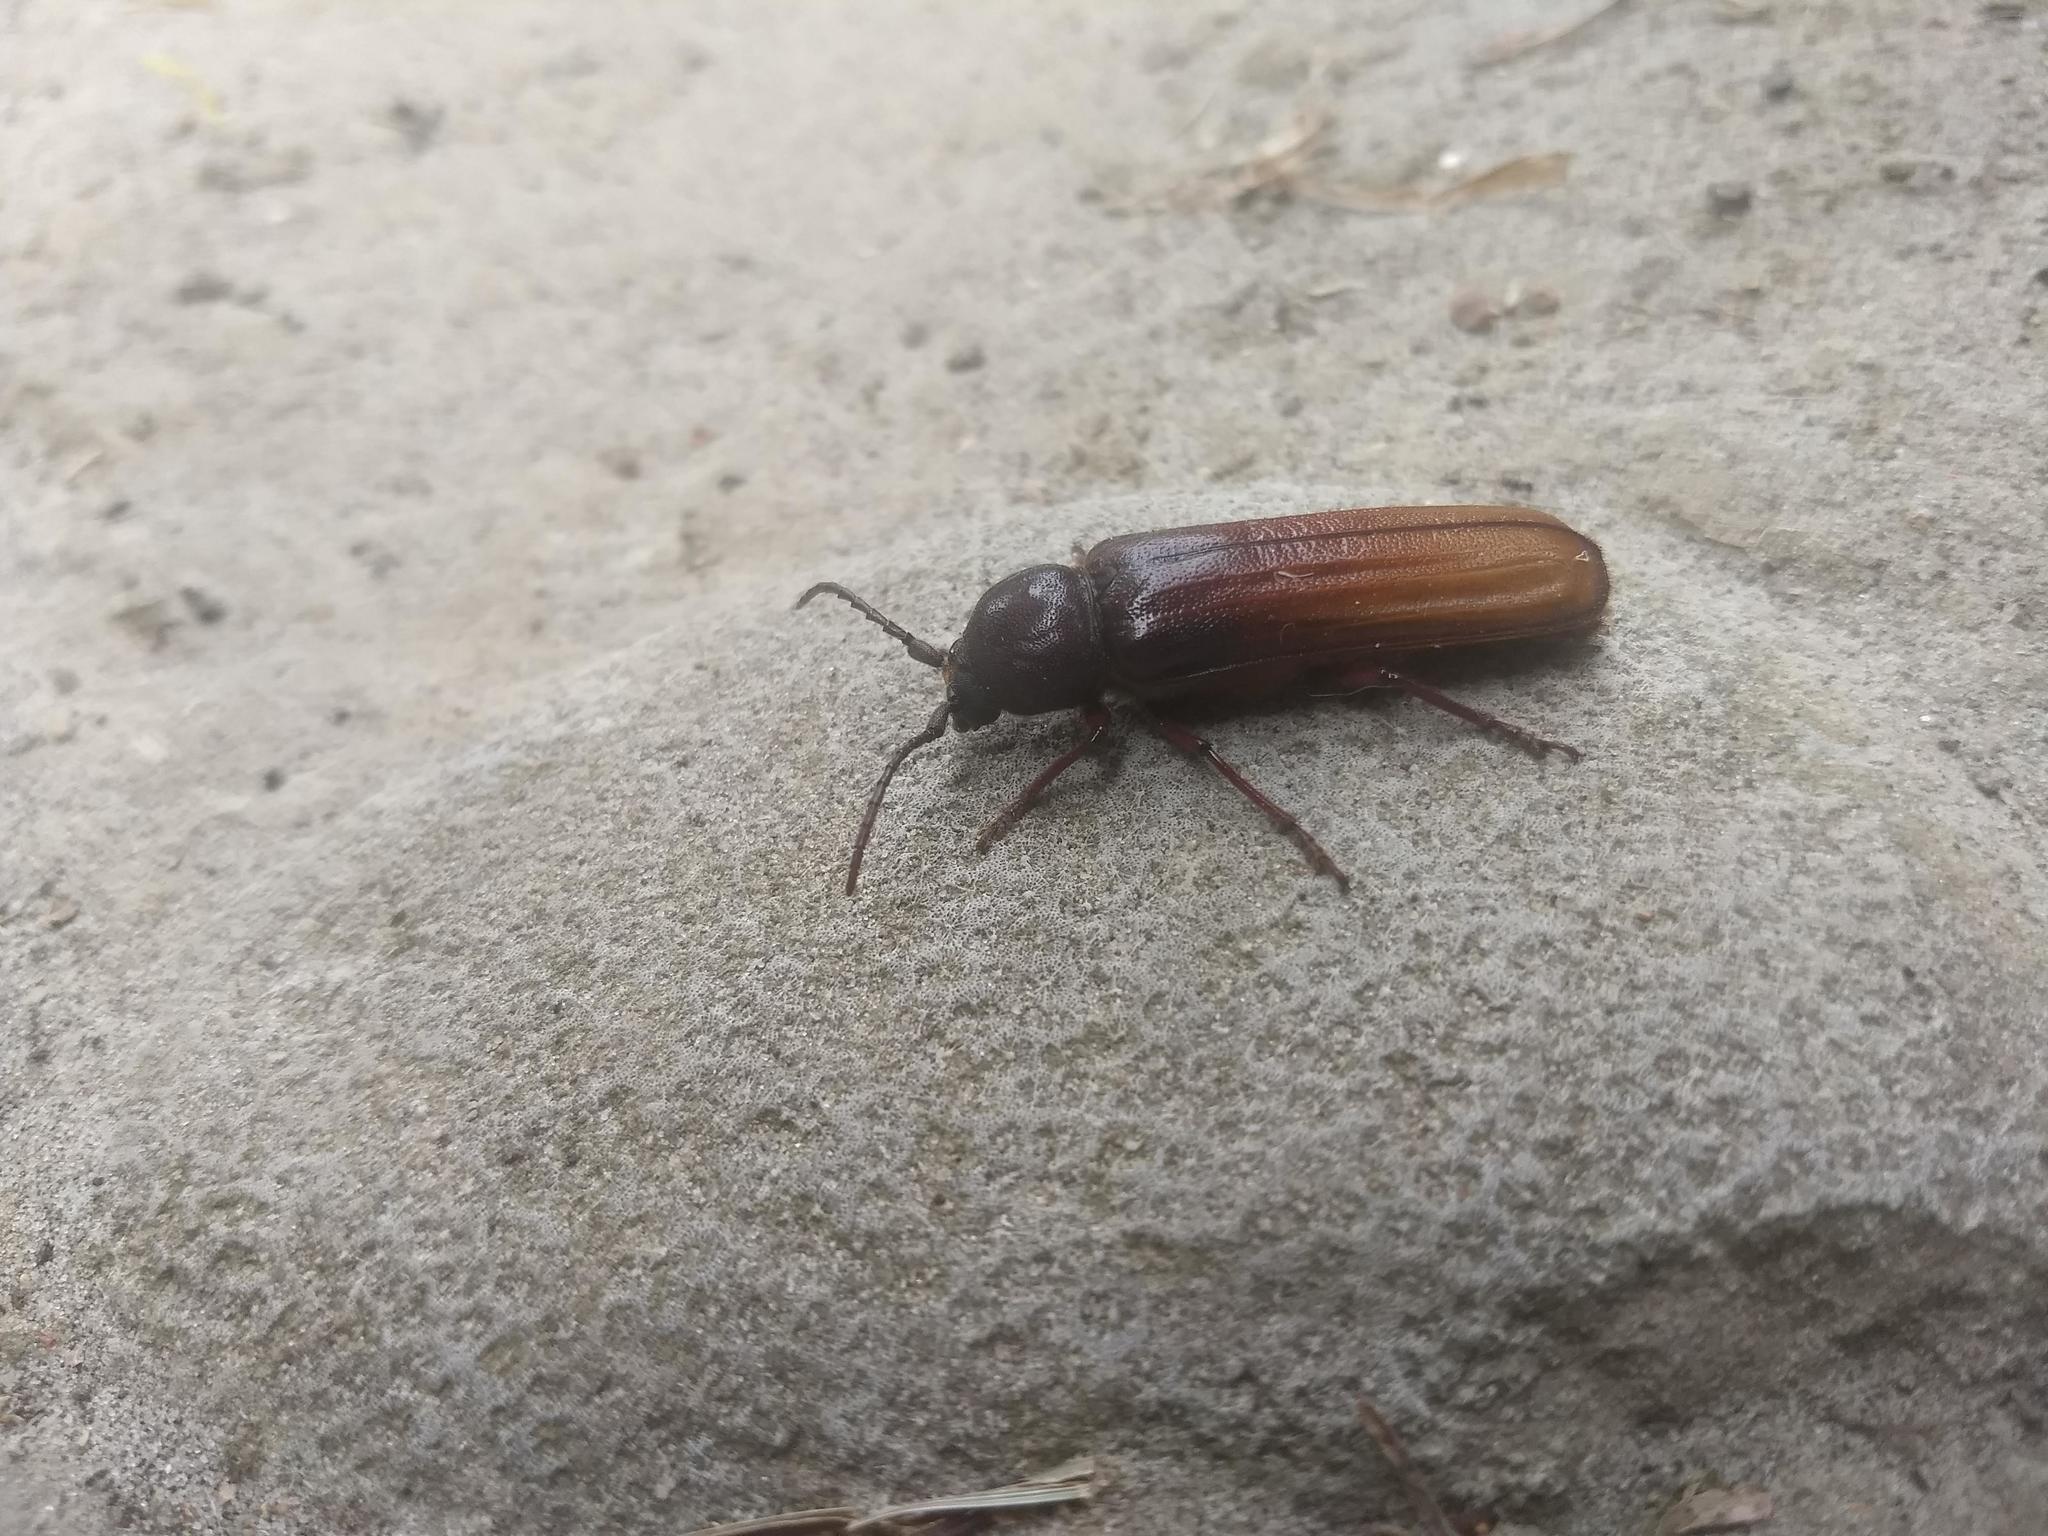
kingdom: Animalia
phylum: Arthropoda
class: Insecta
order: Coleoptera
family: Cerambycidae
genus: Xenambyx
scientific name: Xenambyx lansbergei
